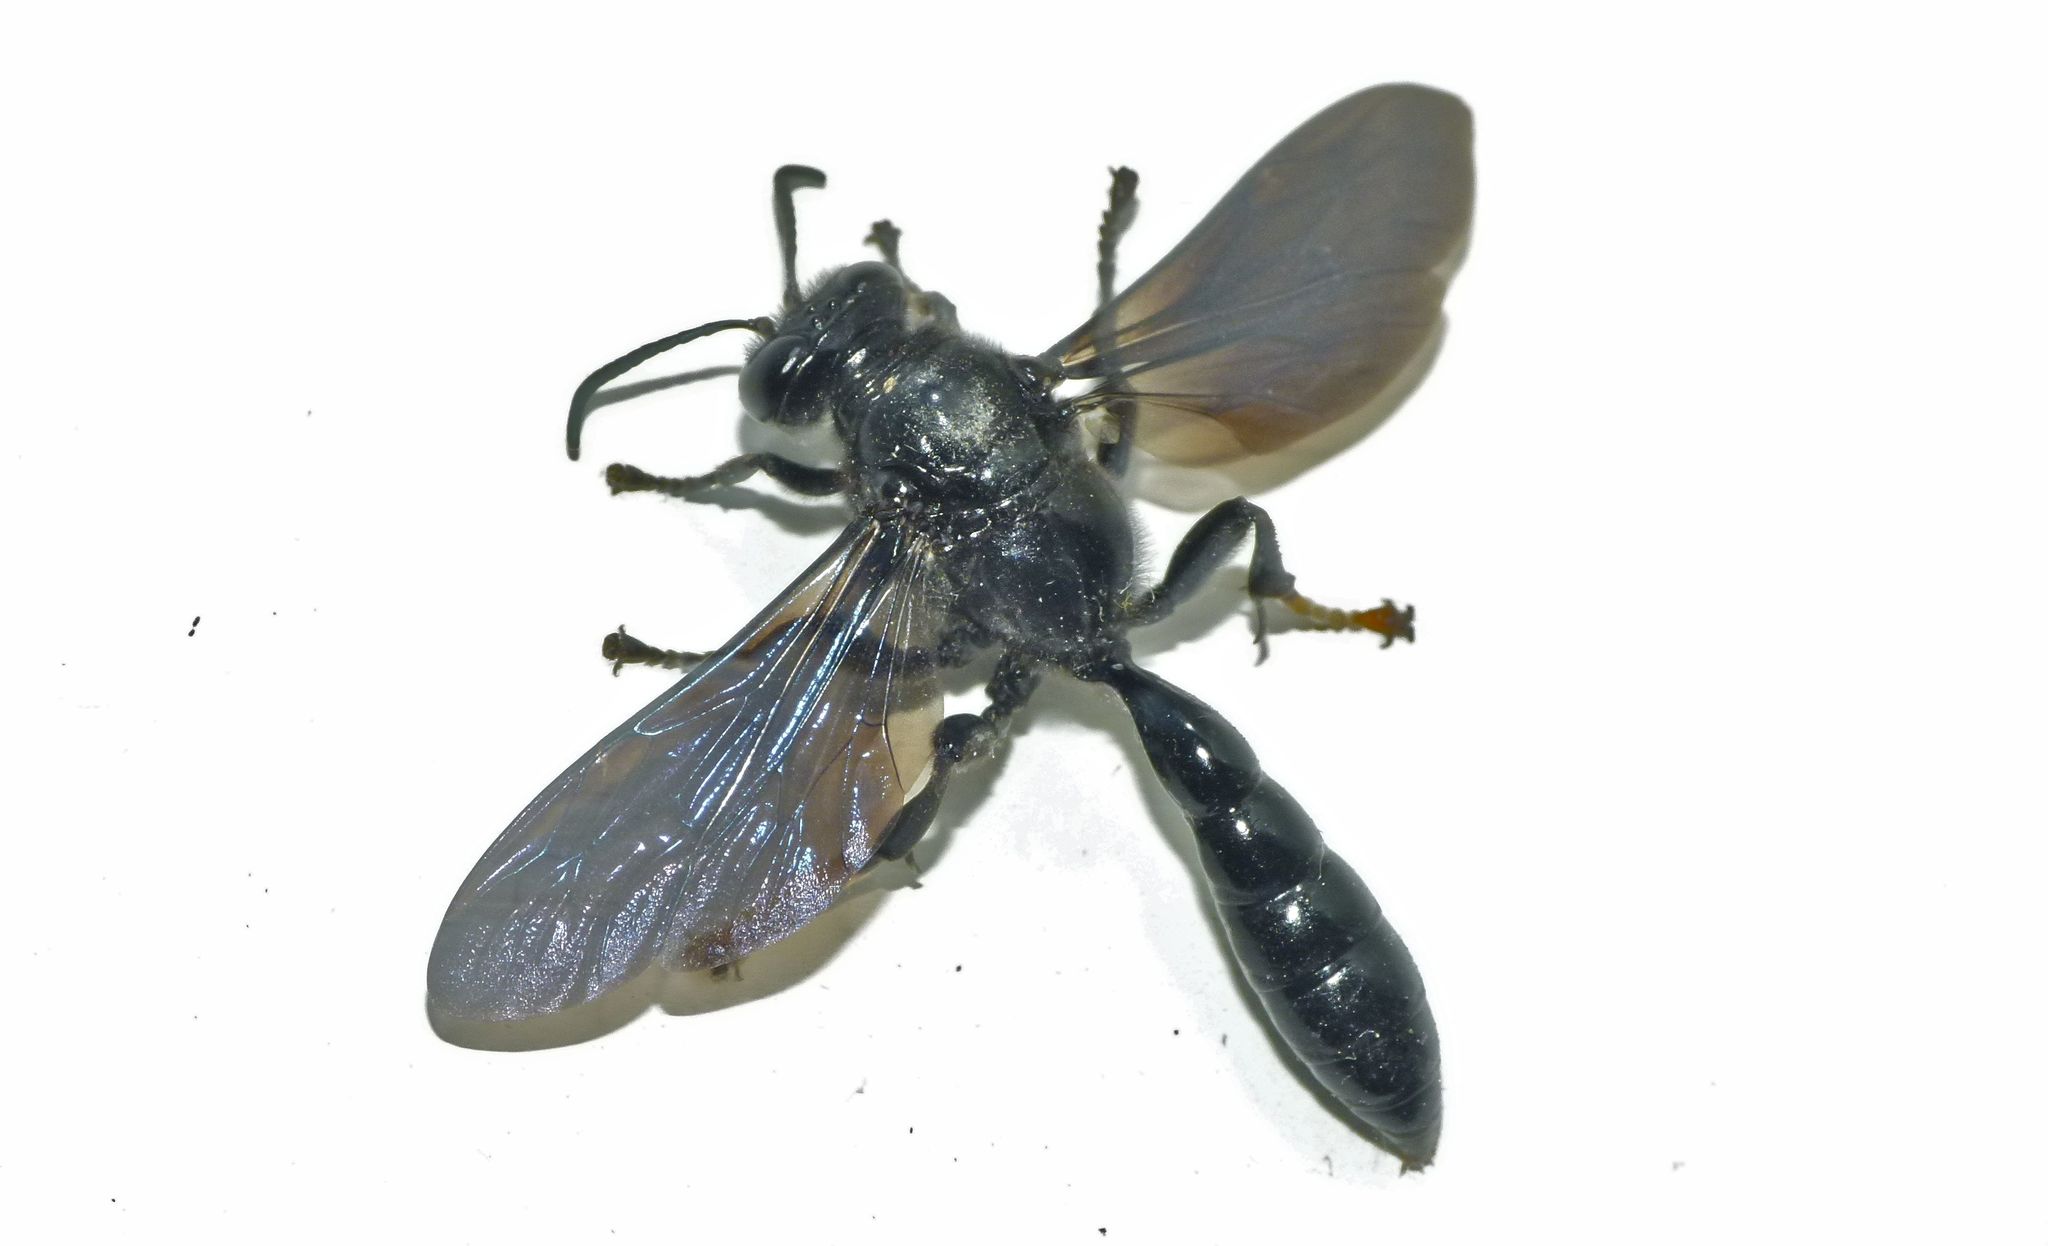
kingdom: Animalia
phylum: Arthropoda
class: Insecta
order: Hymenoptera
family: Crabronidae
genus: Trypoxylon
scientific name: Trypoxylon politum
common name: Organ-pipe mud-dauber wasp
